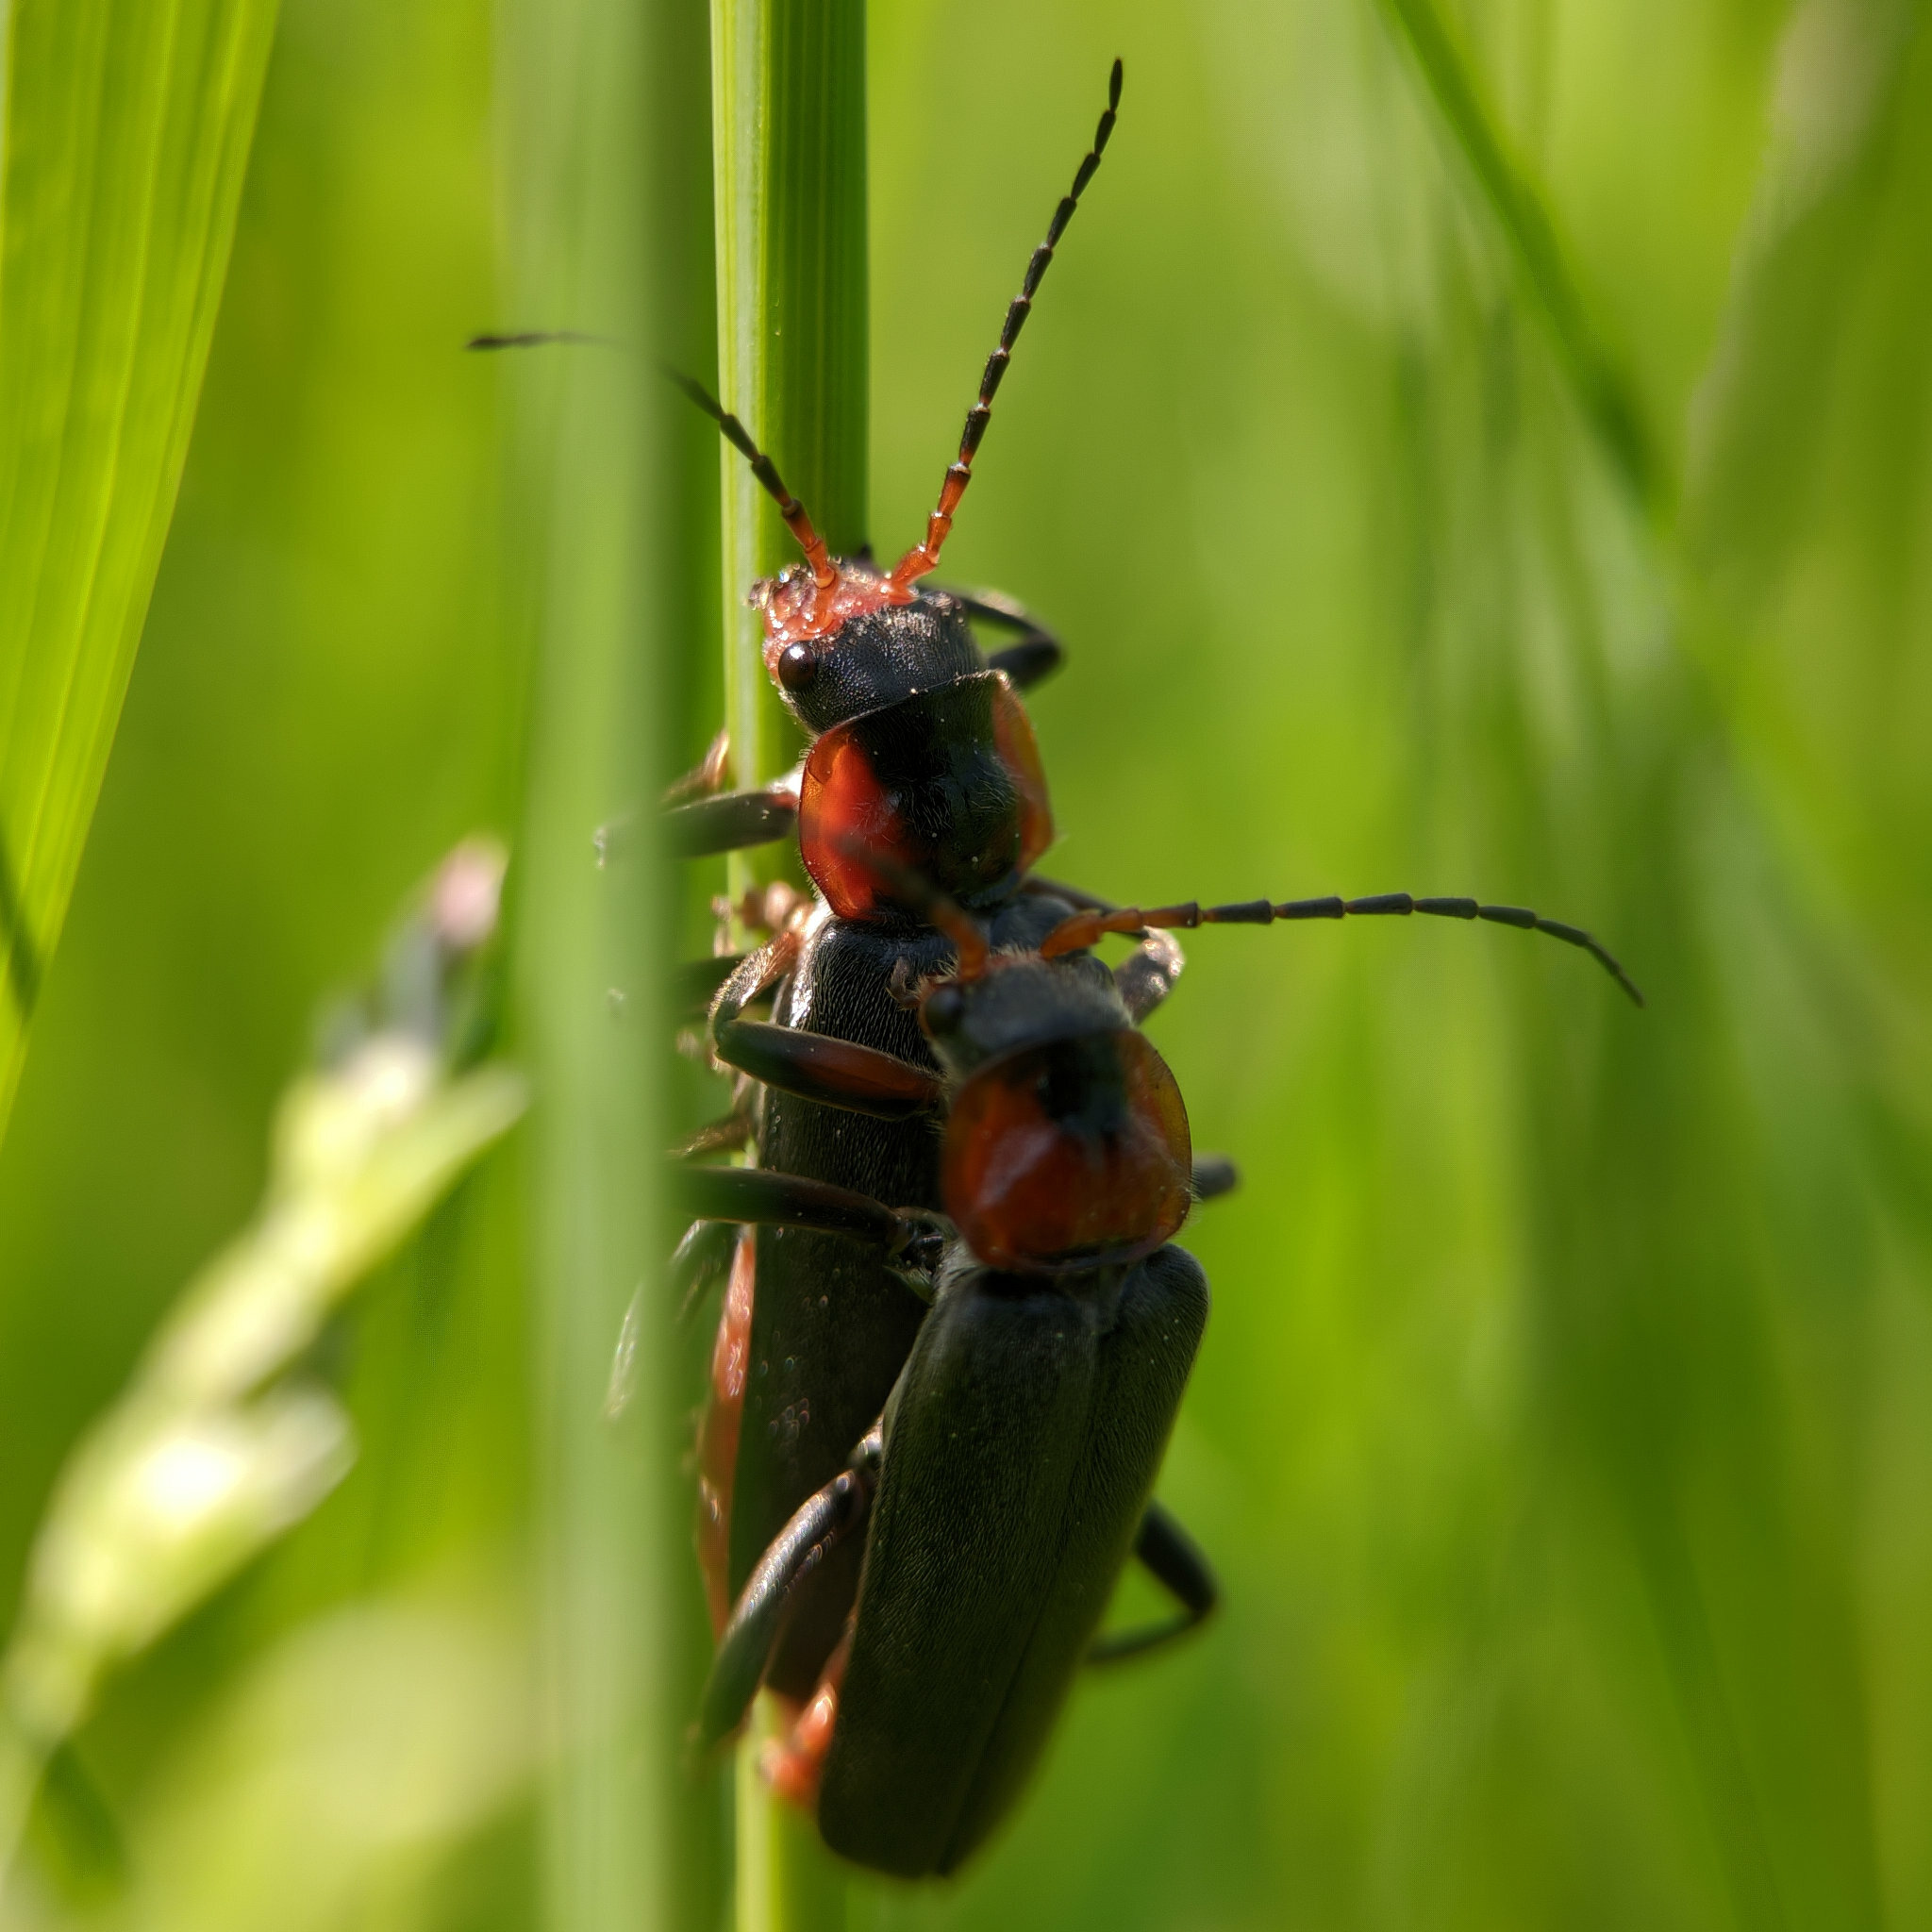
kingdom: Animalia
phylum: Arthropoda
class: Insecta
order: Coleoptera
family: Cantharidae
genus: Cantharis
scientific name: Cantharis fusca
